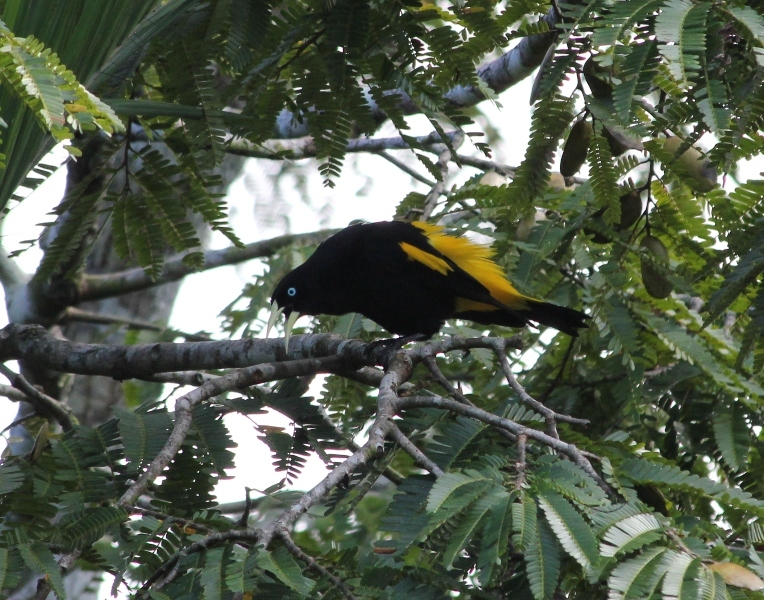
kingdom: Animalia
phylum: Chordata
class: Aves
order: Passeriformes
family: Icteridae
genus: Cacicus
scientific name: Cacicus cela
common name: Yellow-rumped cacique
